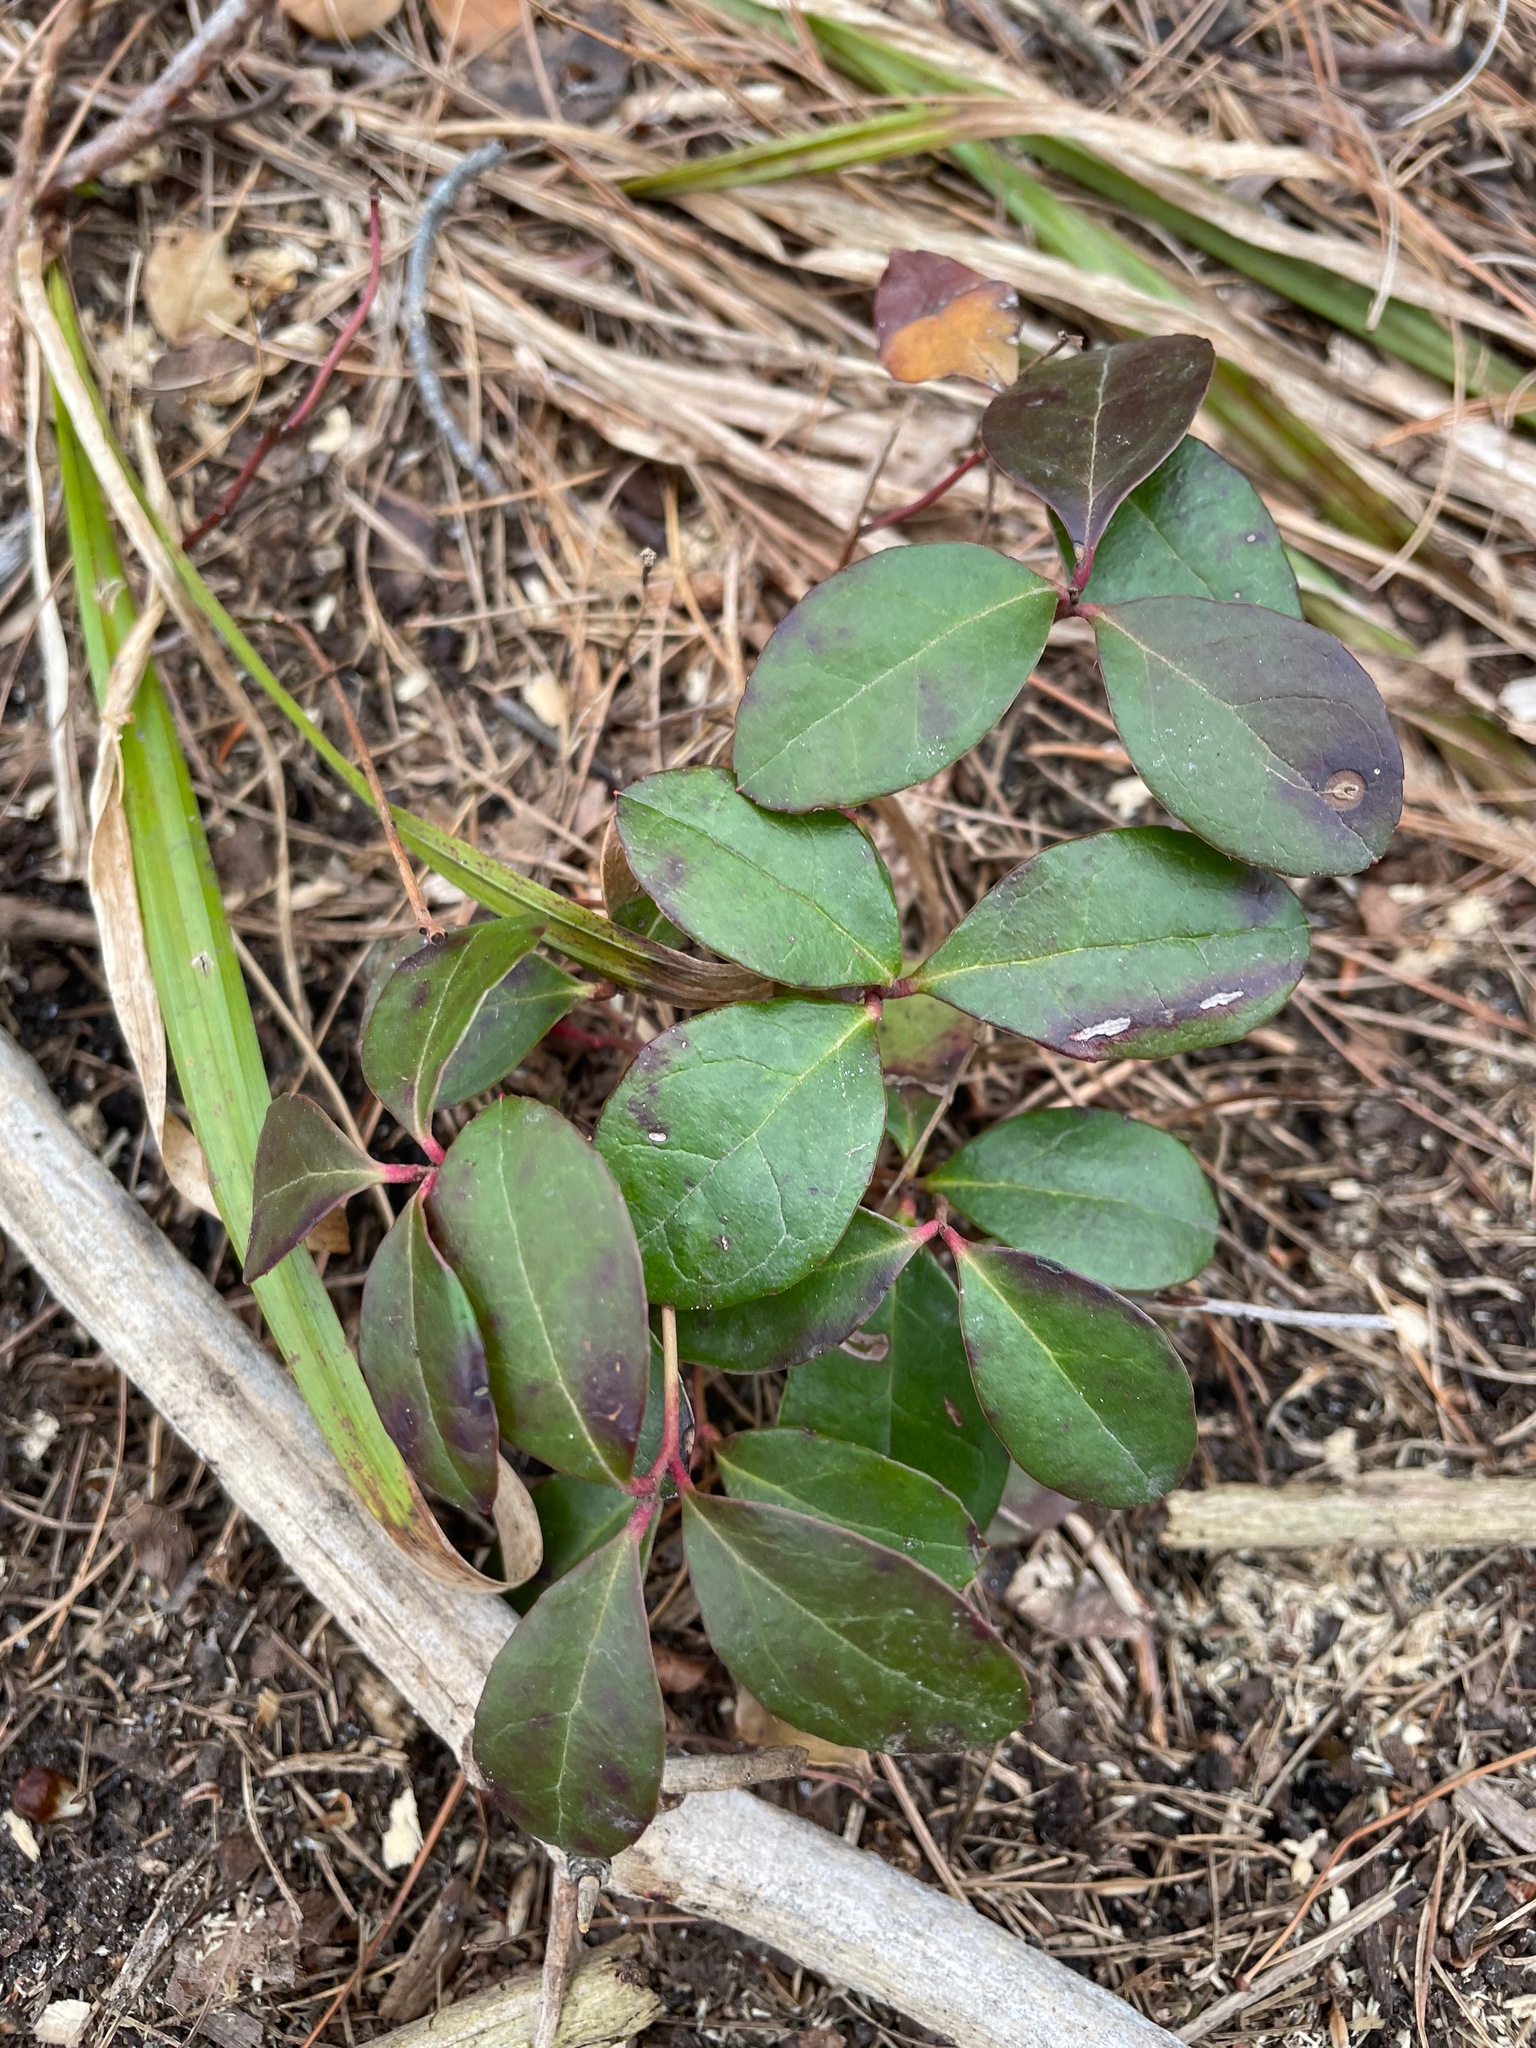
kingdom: Plantae
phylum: Tracheophyta
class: Magnoliopsida
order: Ericales
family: Ericaceae
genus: Gaultheria
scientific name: Gaultheria procumbens
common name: Checkerberry
